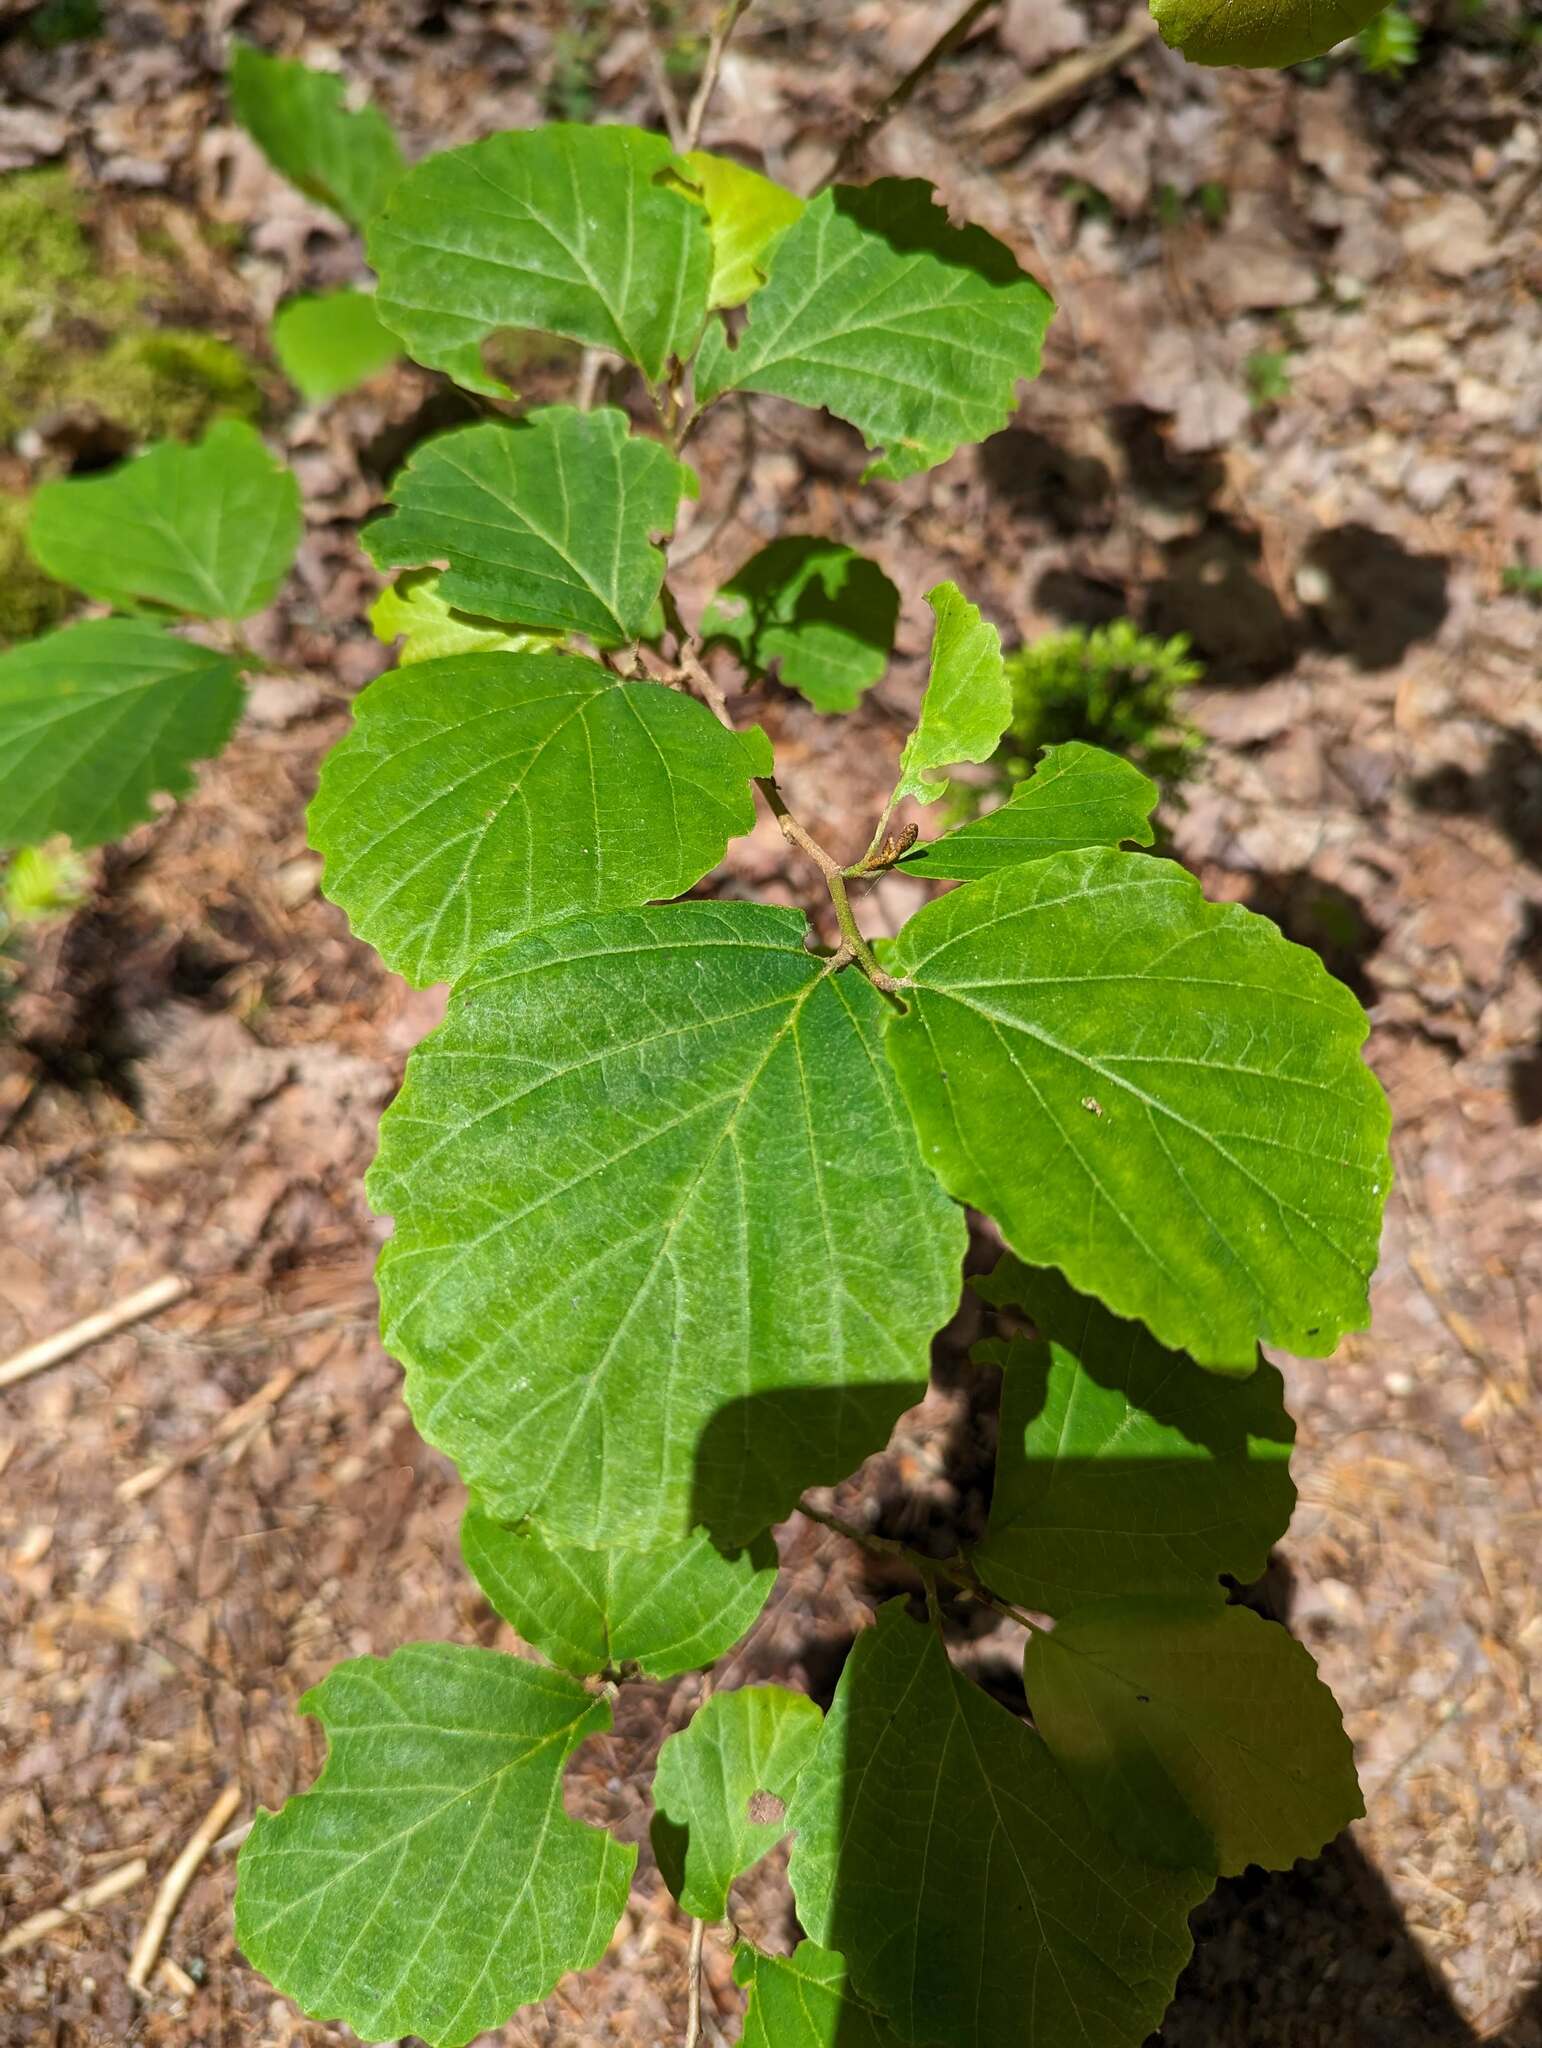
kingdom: Plantae
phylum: Tracheophyta
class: Magnoliopsida
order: Saxifragales
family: Hamamelidaceae
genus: Hamamelis
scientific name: Hamamelis virginiana
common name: Witch-hazel
